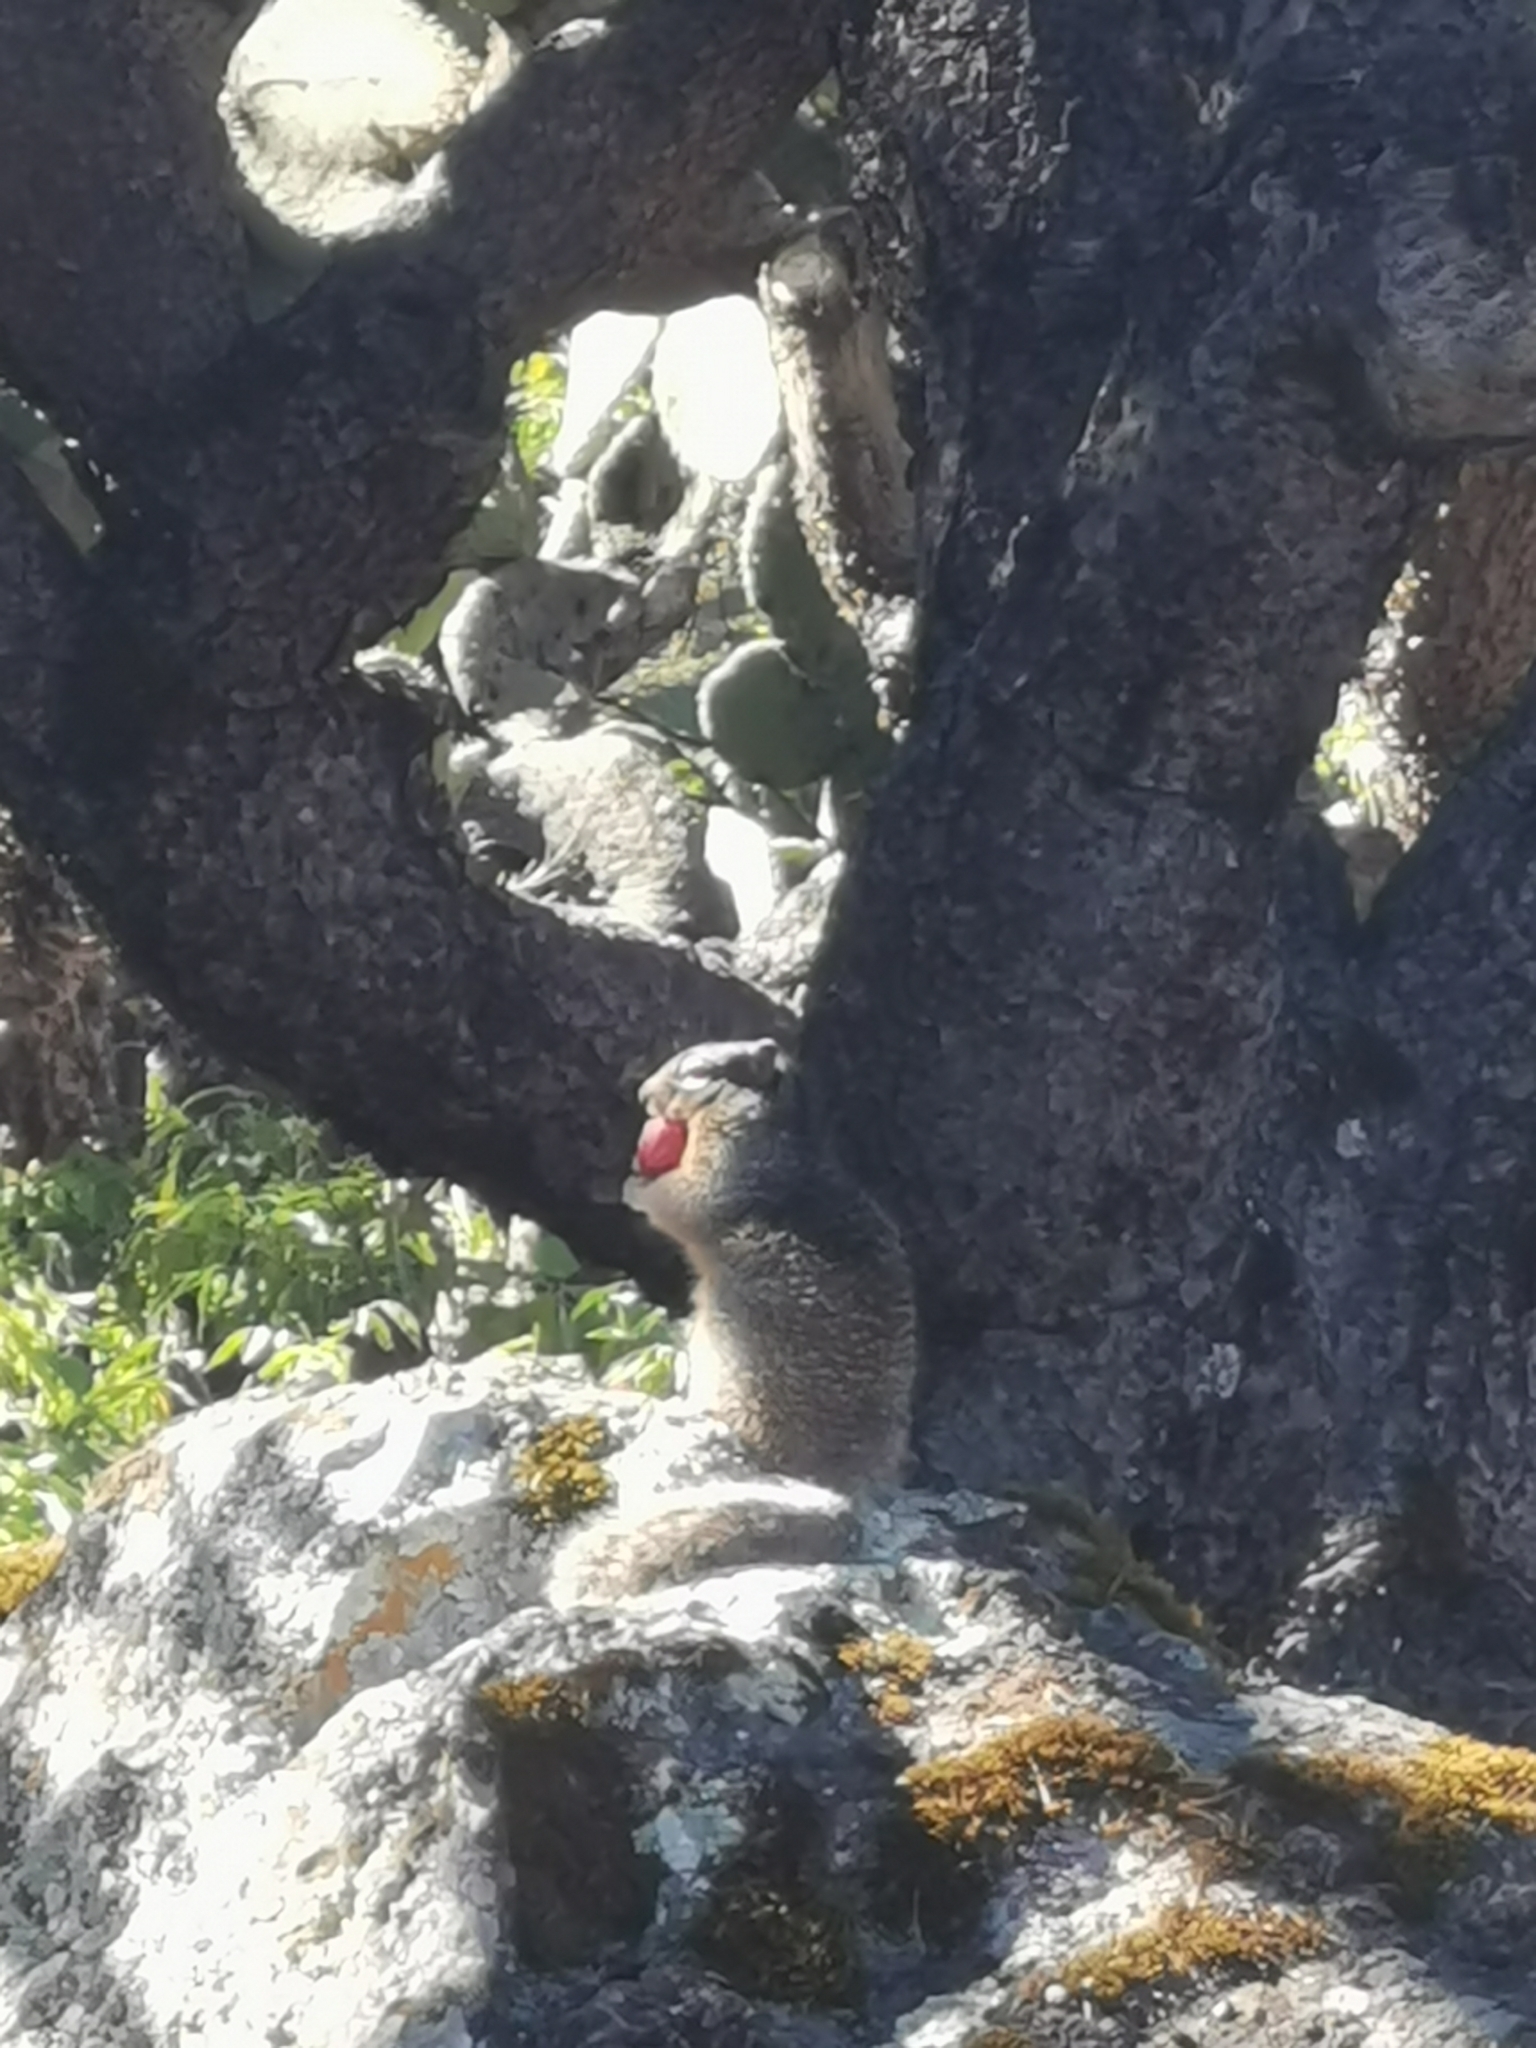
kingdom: Animalia
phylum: Chordata
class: Mammalia
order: Rodentia
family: Sciuridae
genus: Otospermophilus
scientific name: Otospermophilus variegatus
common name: Rock squirrel
